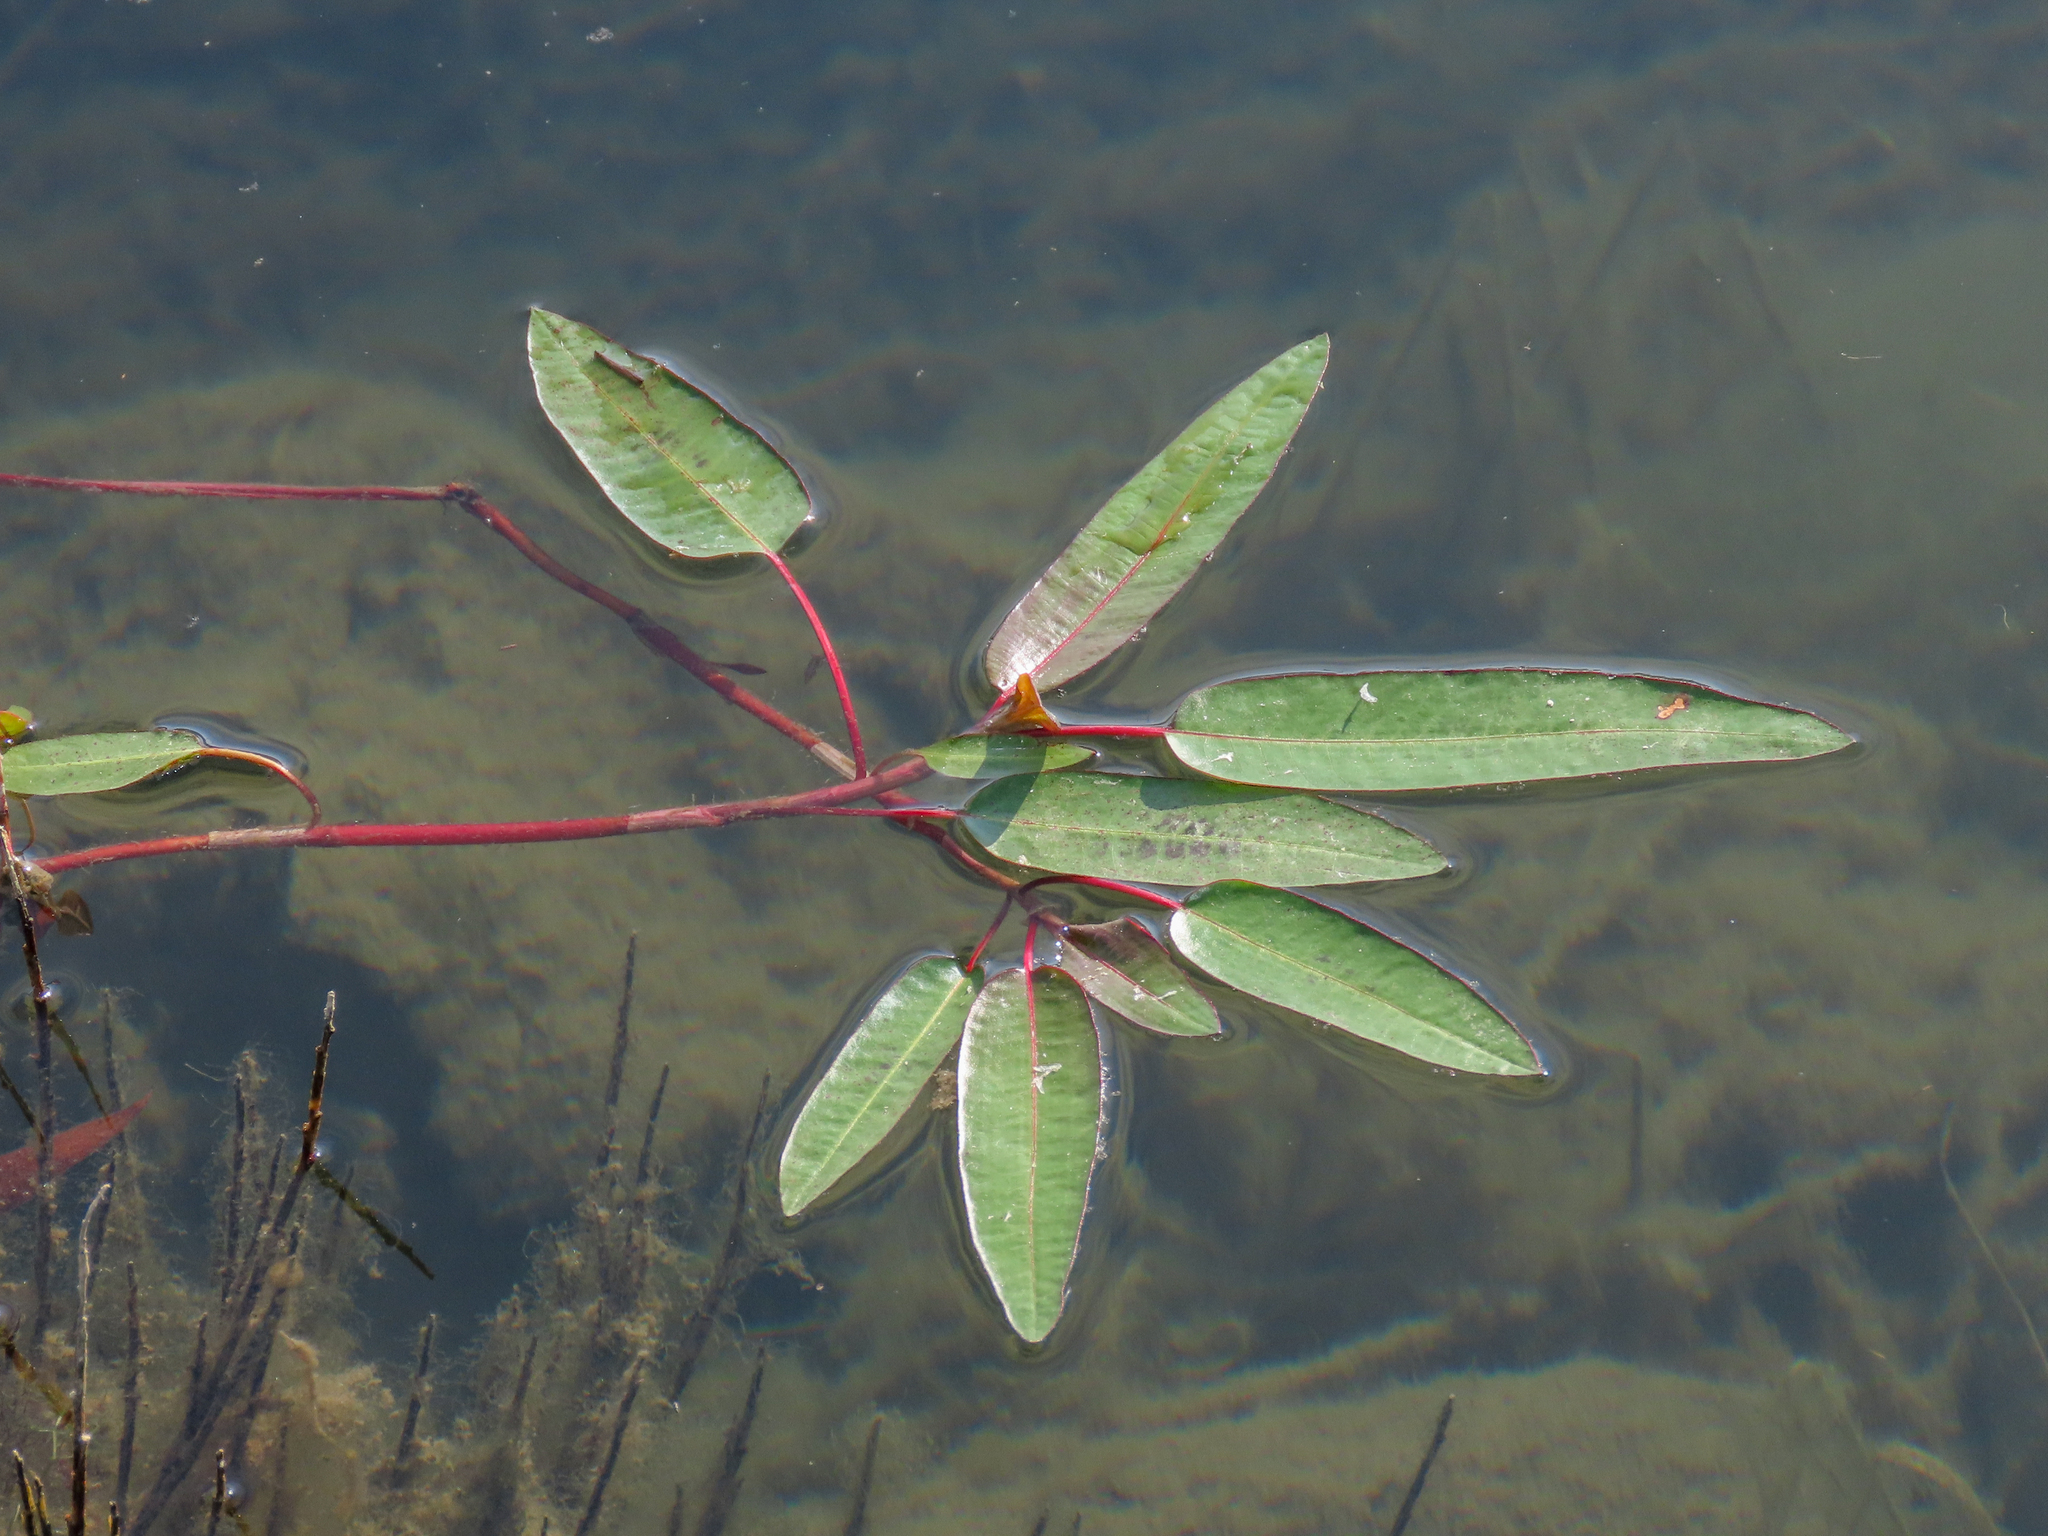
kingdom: Plantae
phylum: Tracheophyta
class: Magnoliopsida
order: Caryophyllales
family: Polygonaceae
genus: Persicaria
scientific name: Persicaria amphibia
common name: Amphibious bistort
